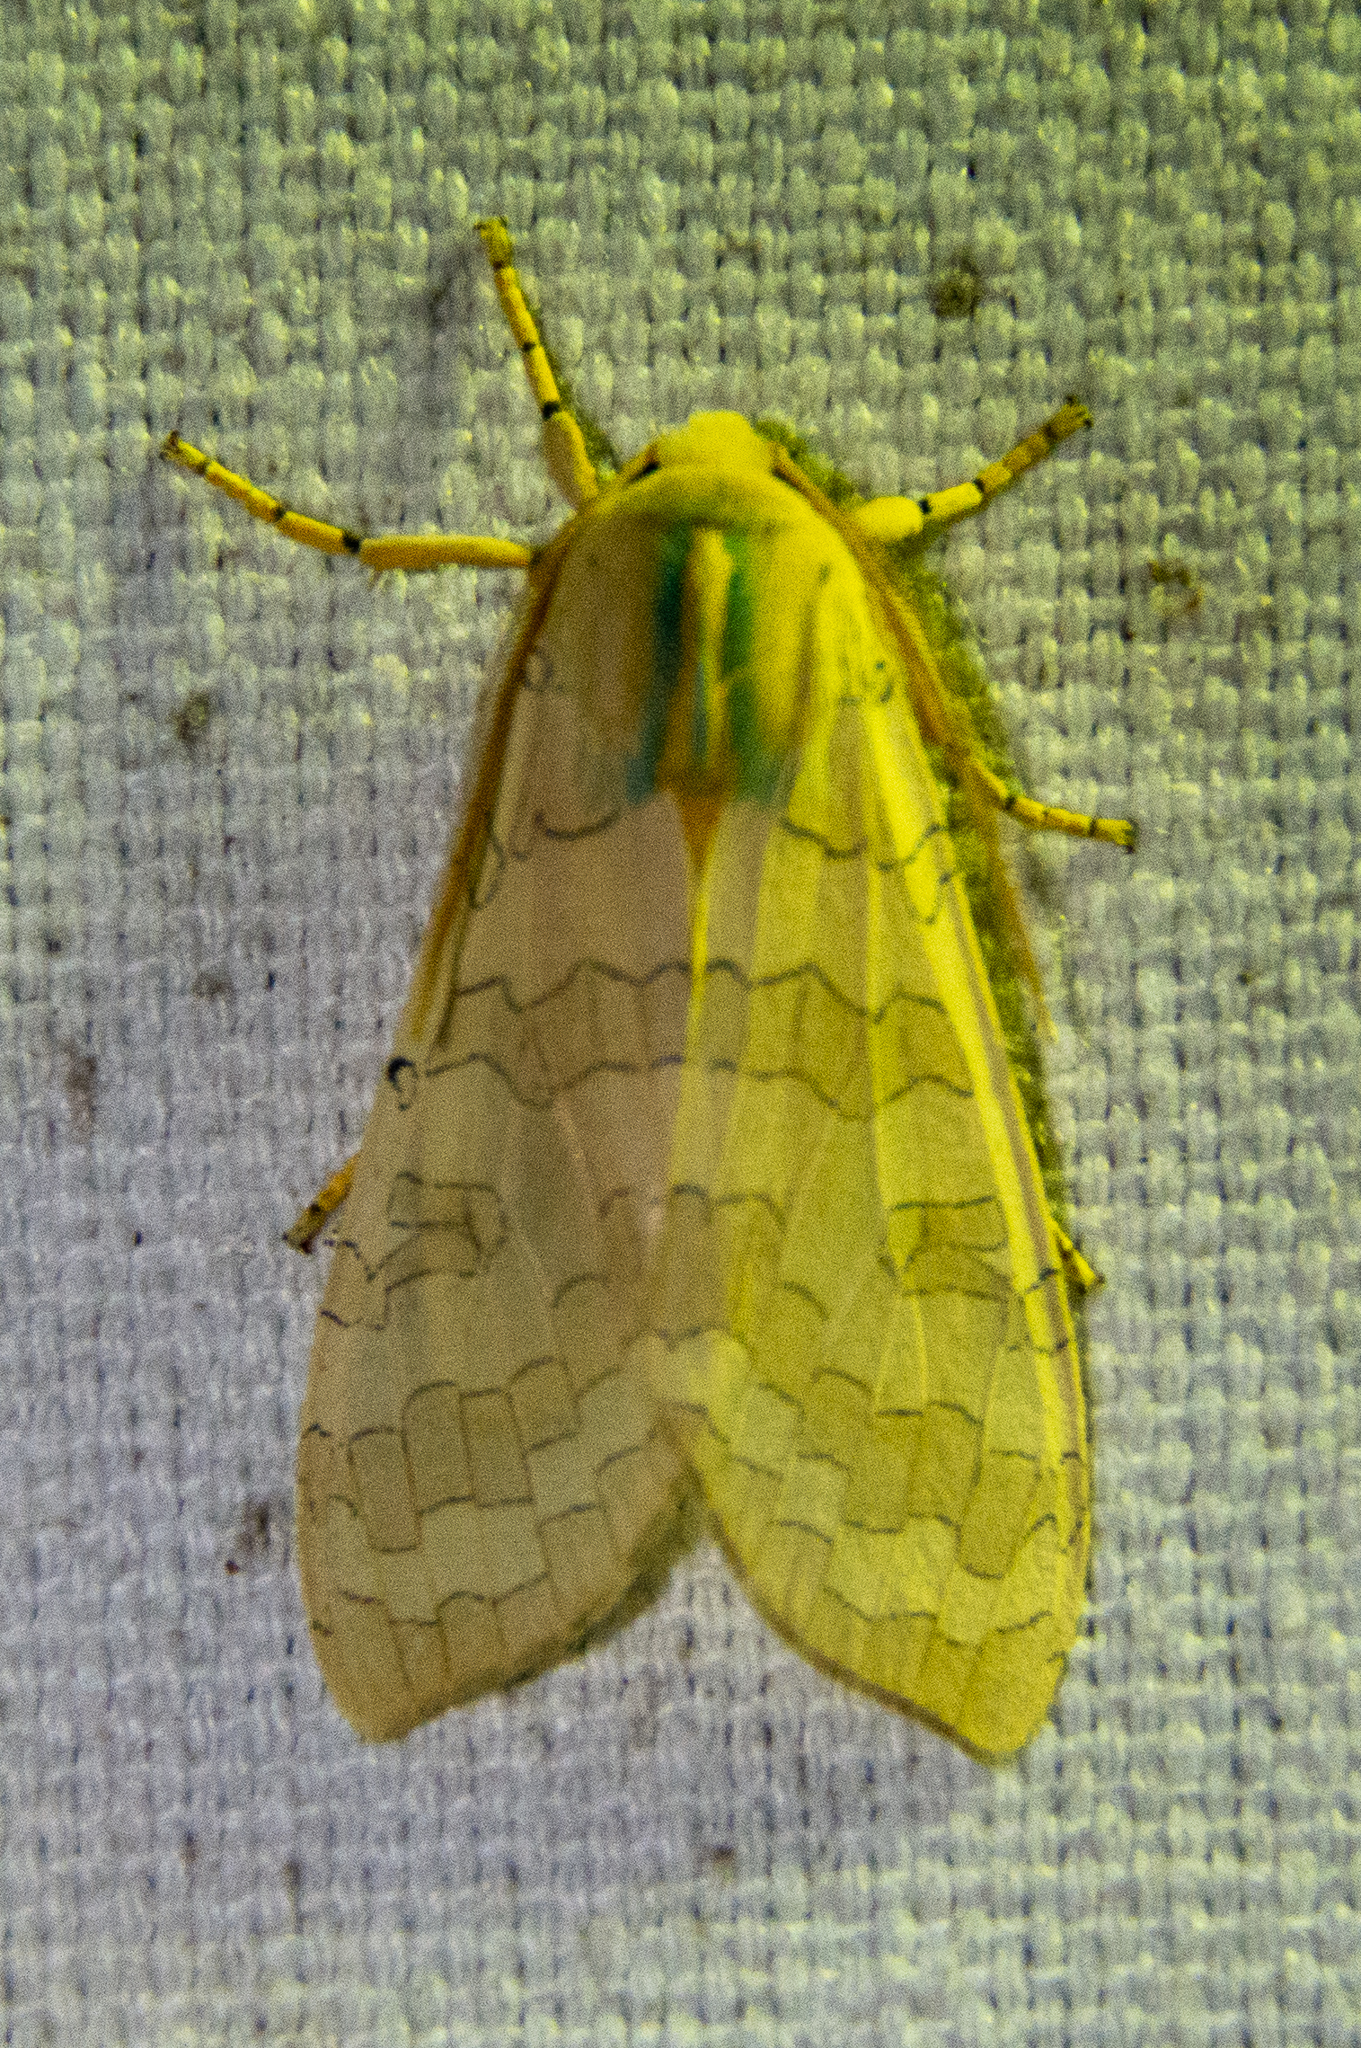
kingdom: Animalia
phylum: Arthropoda
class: Insecta
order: Lepidoptera
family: Erebidae
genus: Halysidota
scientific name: Halysidota
